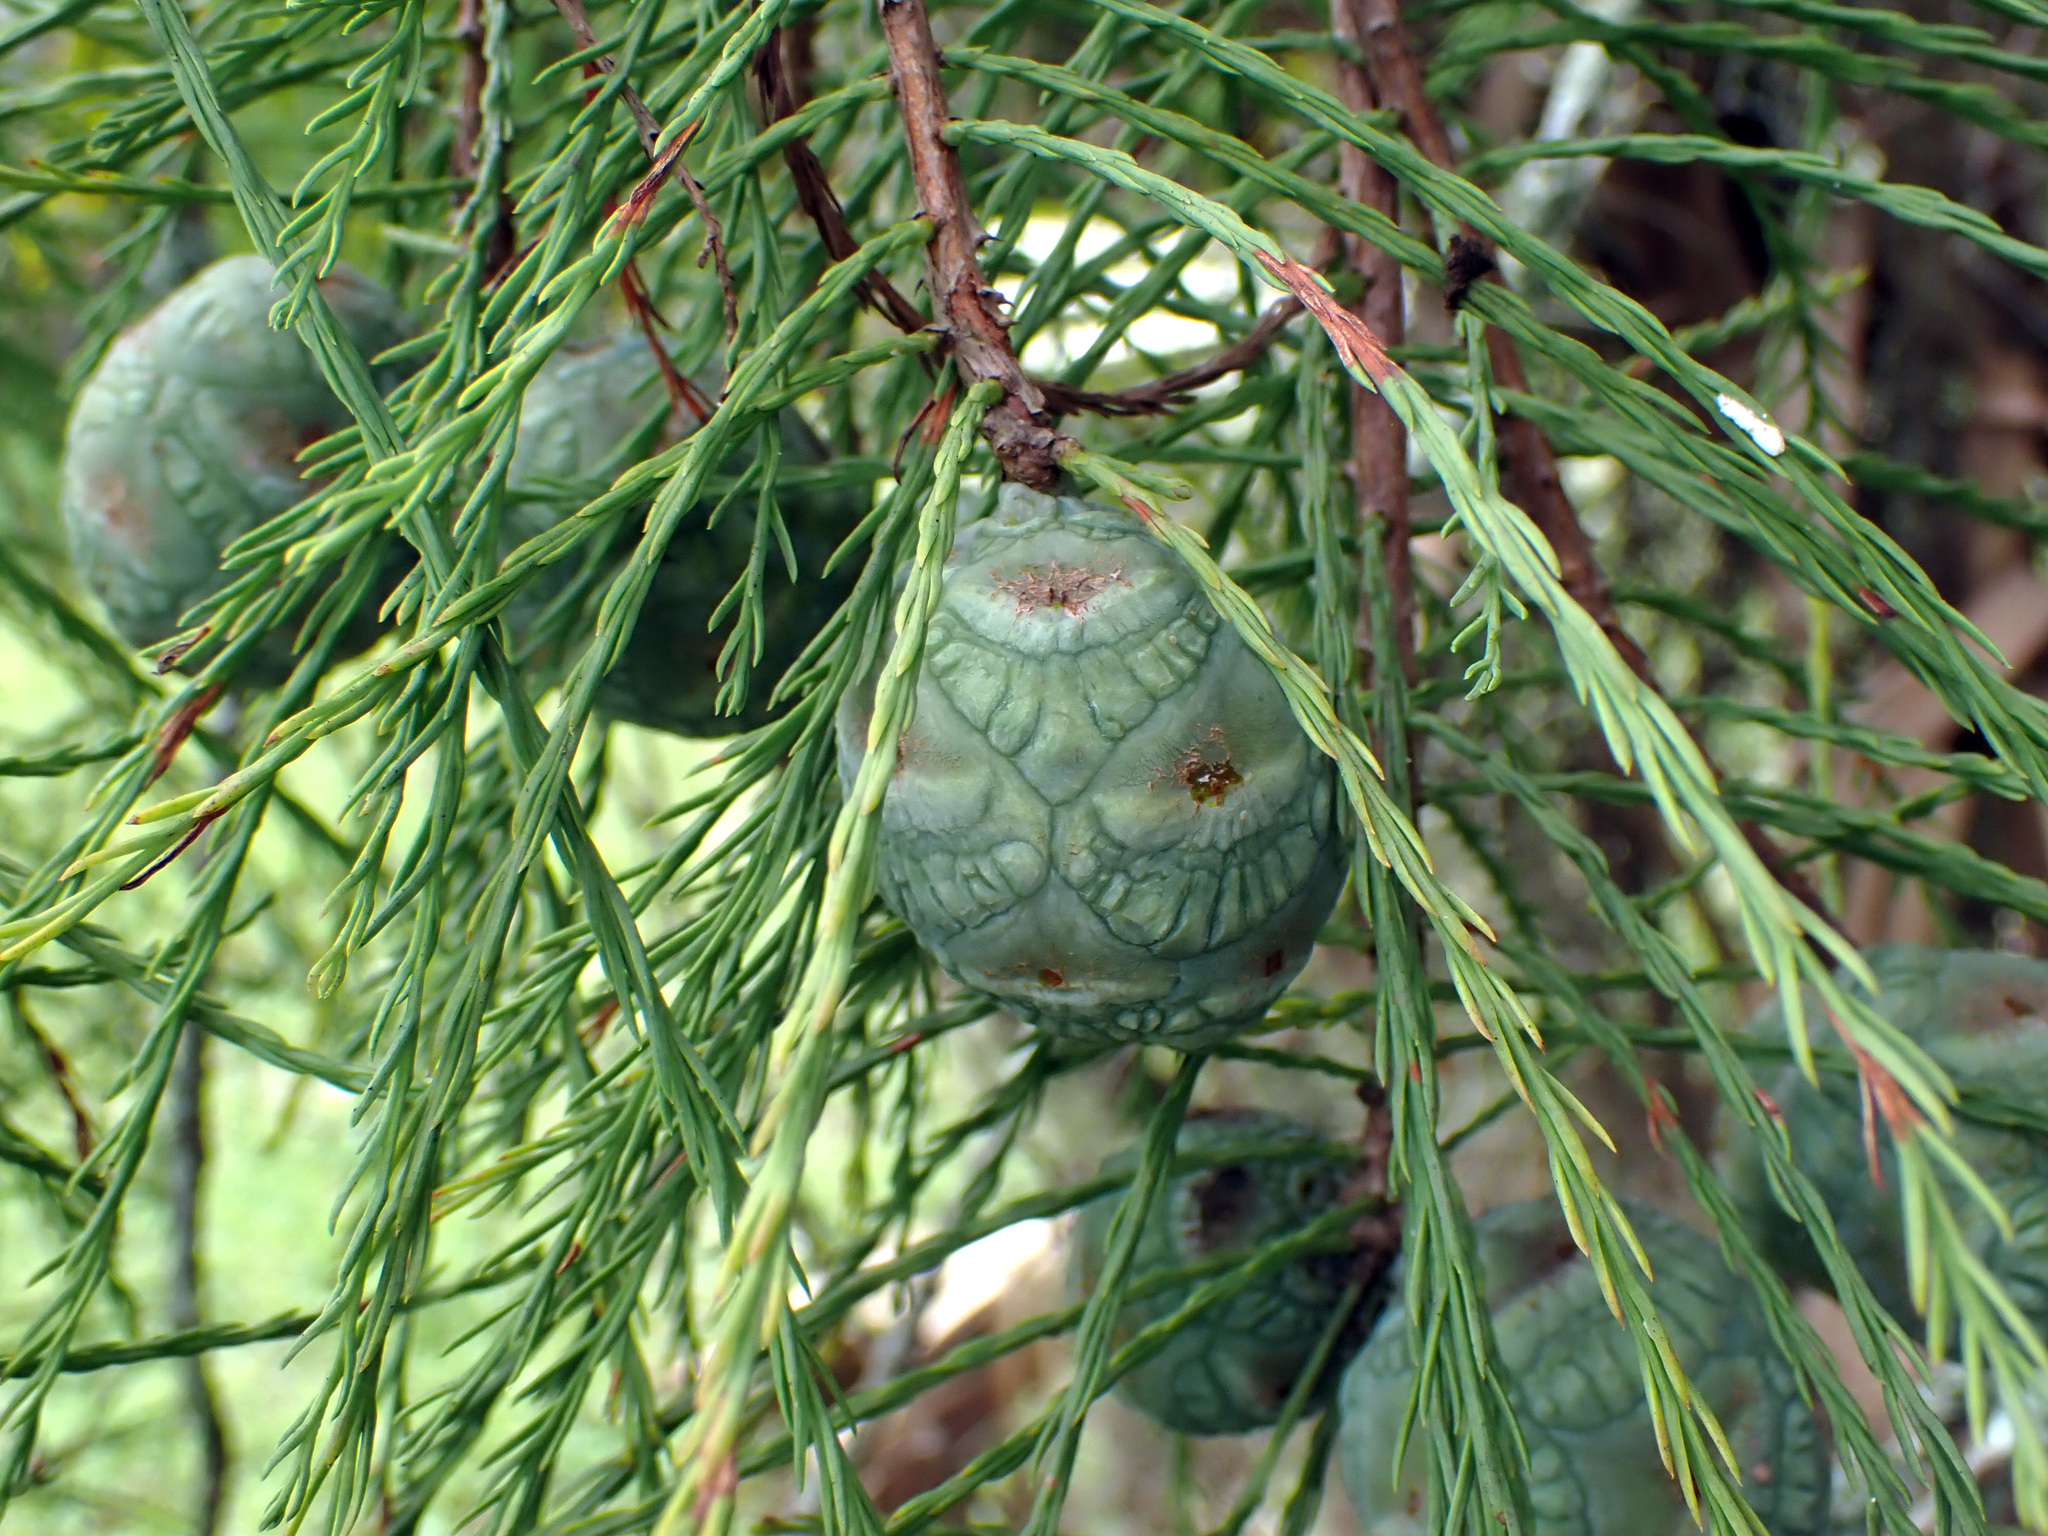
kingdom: Plantae
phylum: Tracheophyta
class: Pinopsida
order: Pinales
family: Cupressaceae
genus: Taxodium
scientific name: Taxodium distichum
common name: Bald cypress
